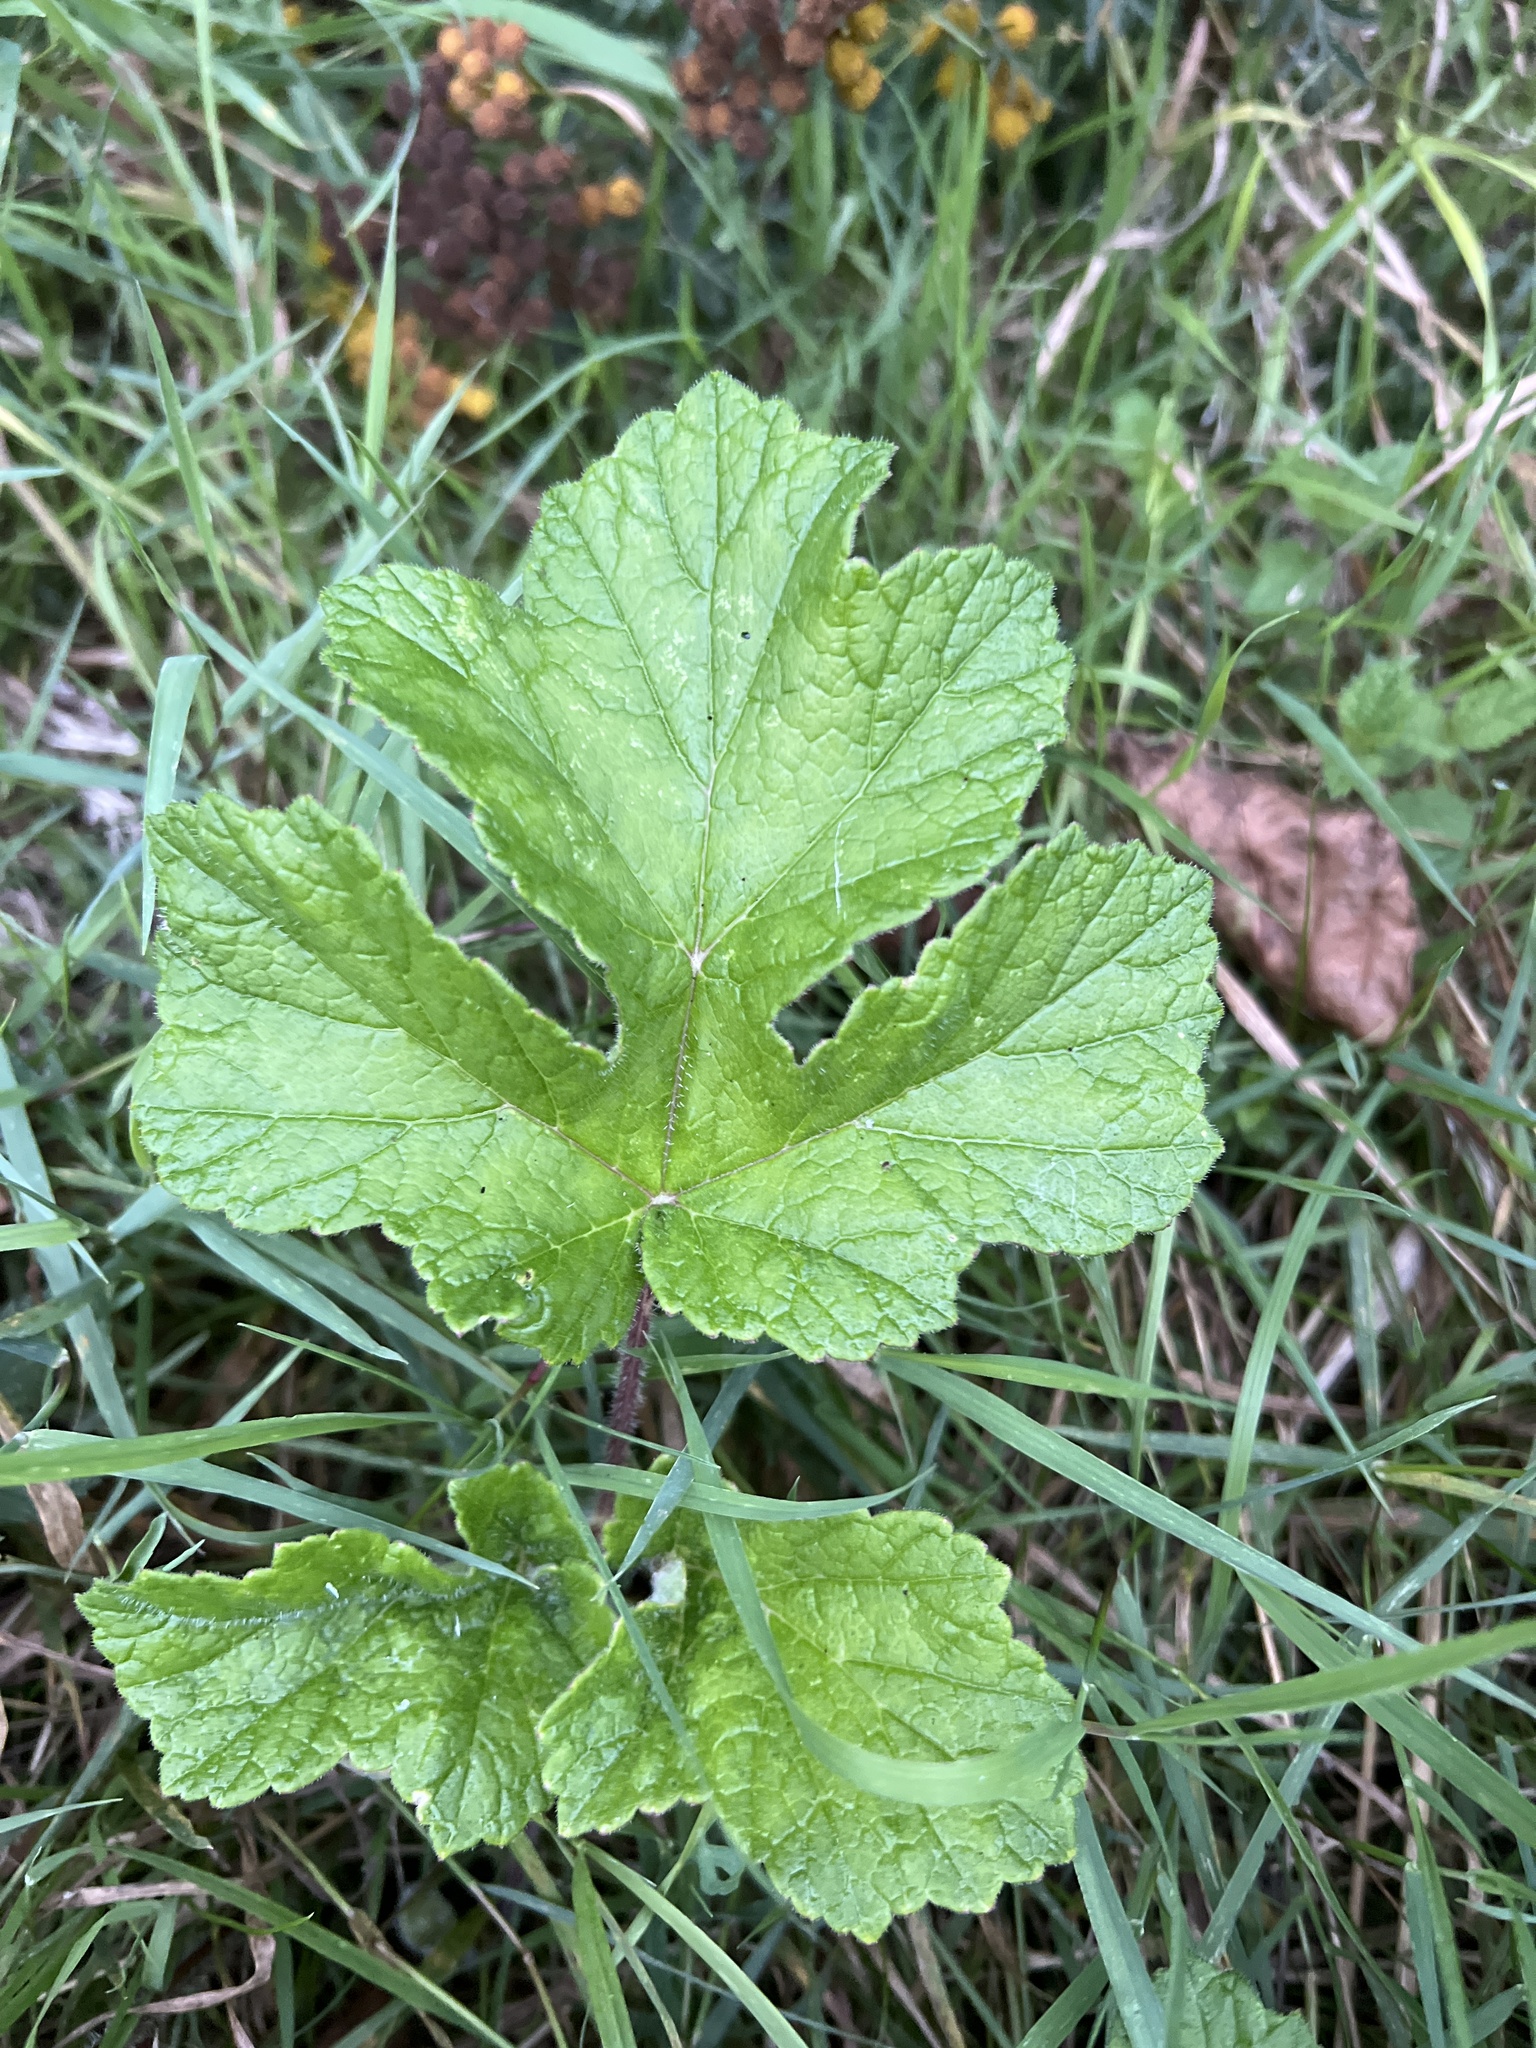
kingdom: Plantae
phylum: Tracheophyta
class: Magnoliopsida
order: Apiales
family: Apiaceae
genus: Heracleum
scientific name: Heracleum sphondylium
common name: Hogweed
